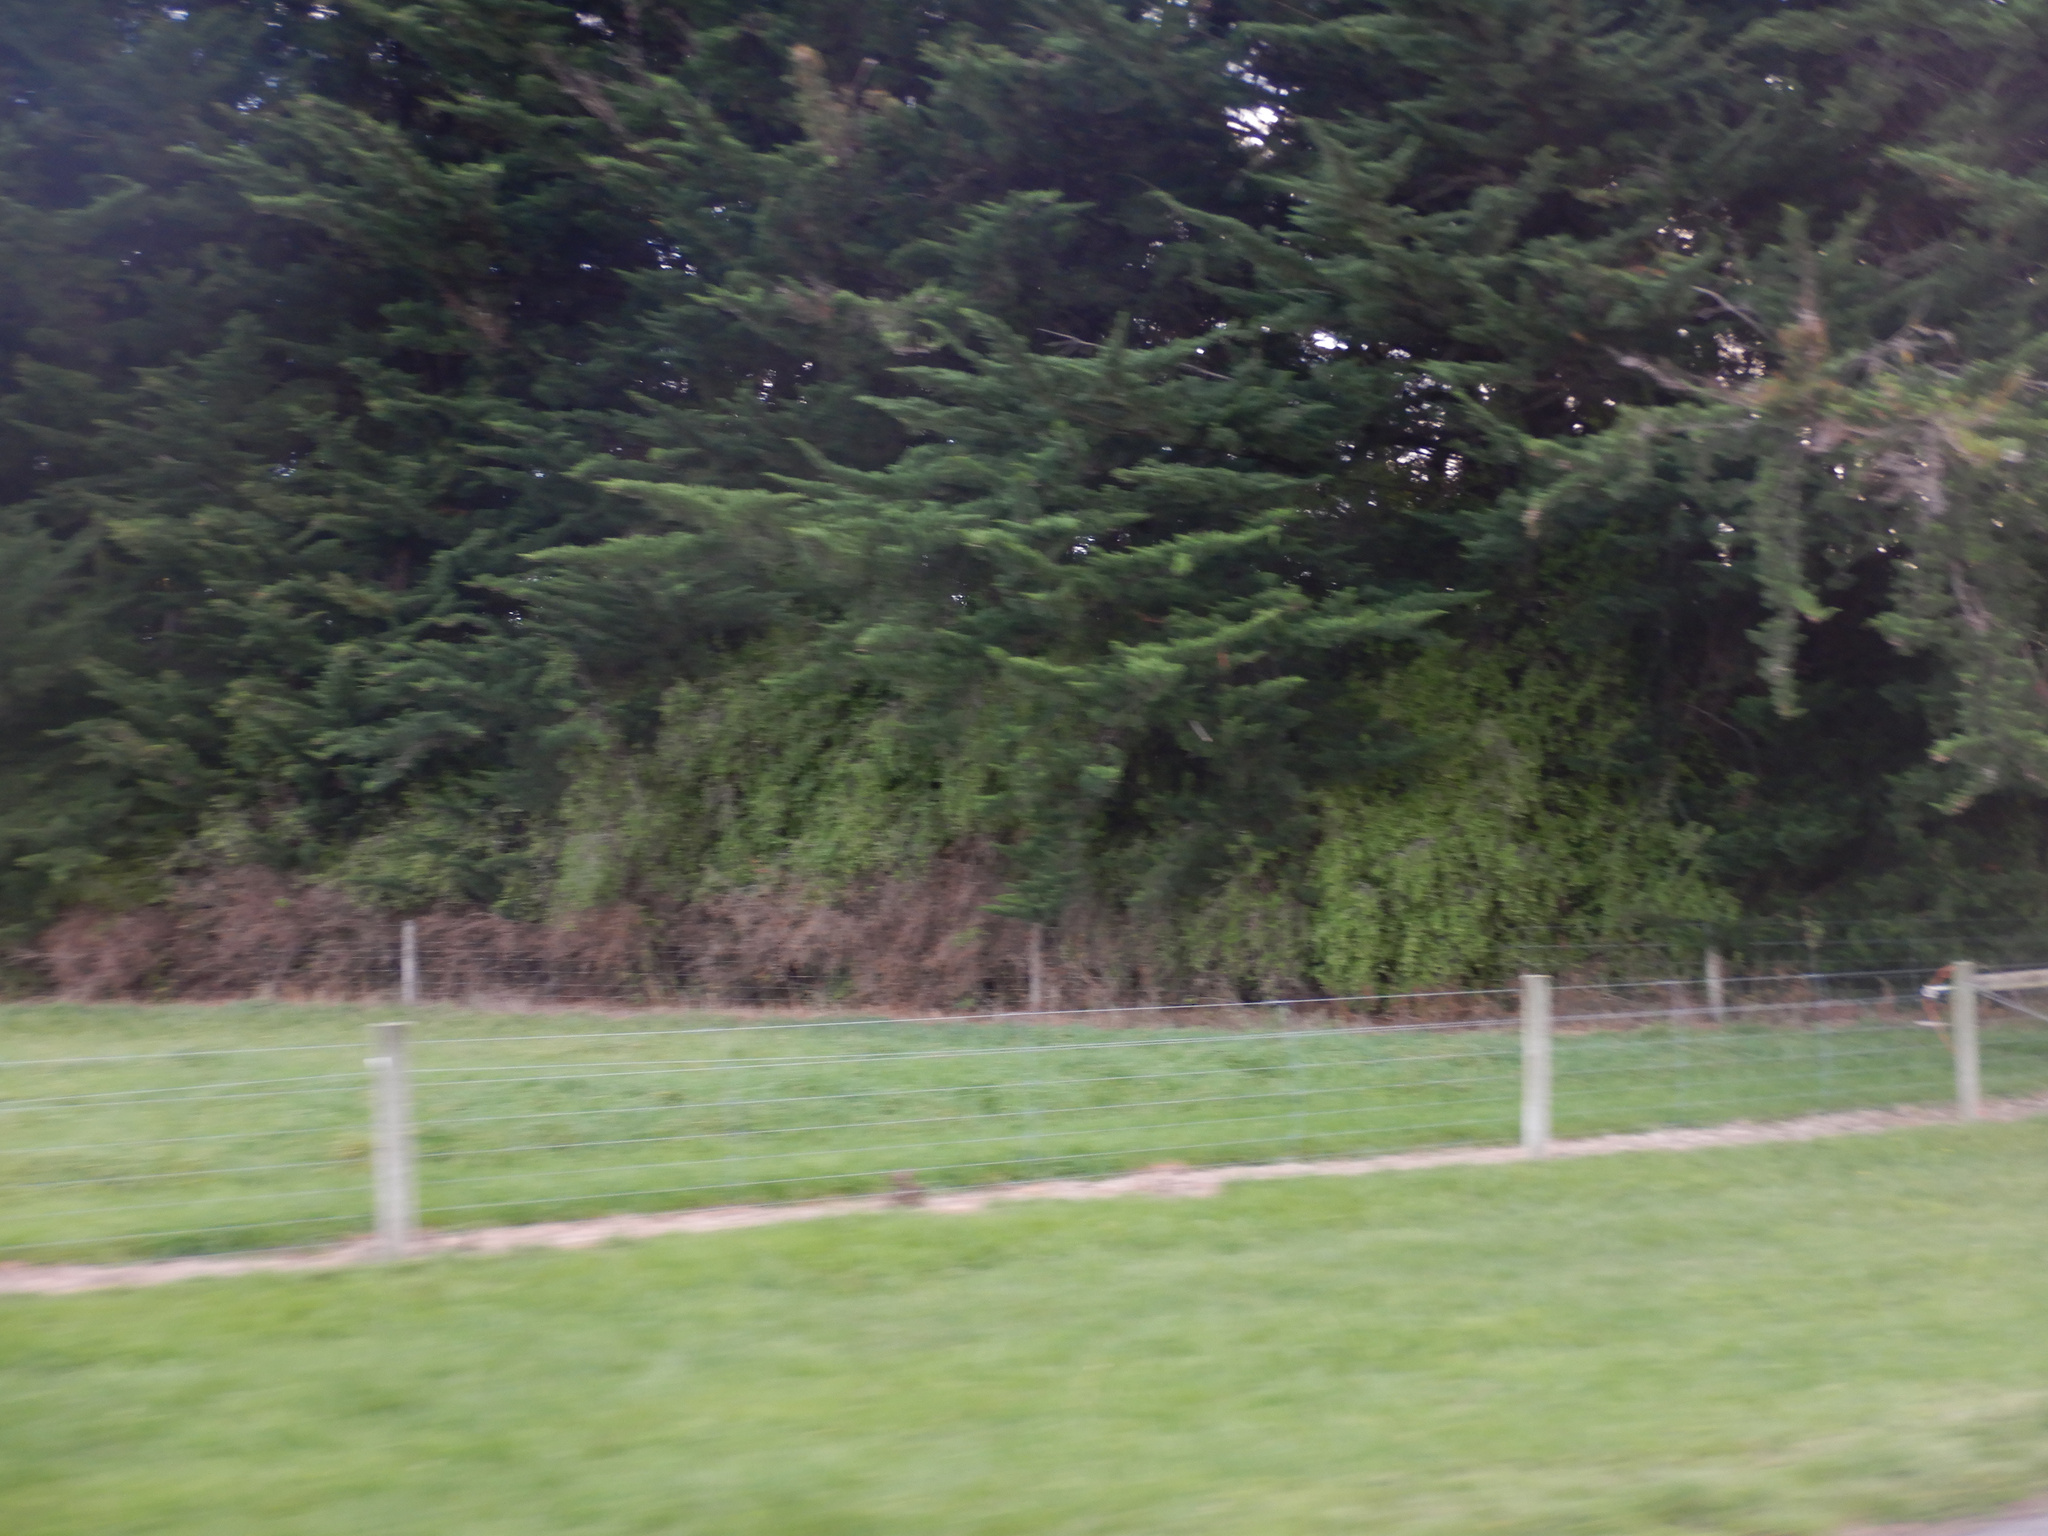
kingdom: Plantae
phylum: Tracheophyta
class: Magnoliopsida
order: Solanales
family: Solanaceae
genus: Lycium
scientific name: Lycium ferocissimum
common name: African boxthorn
